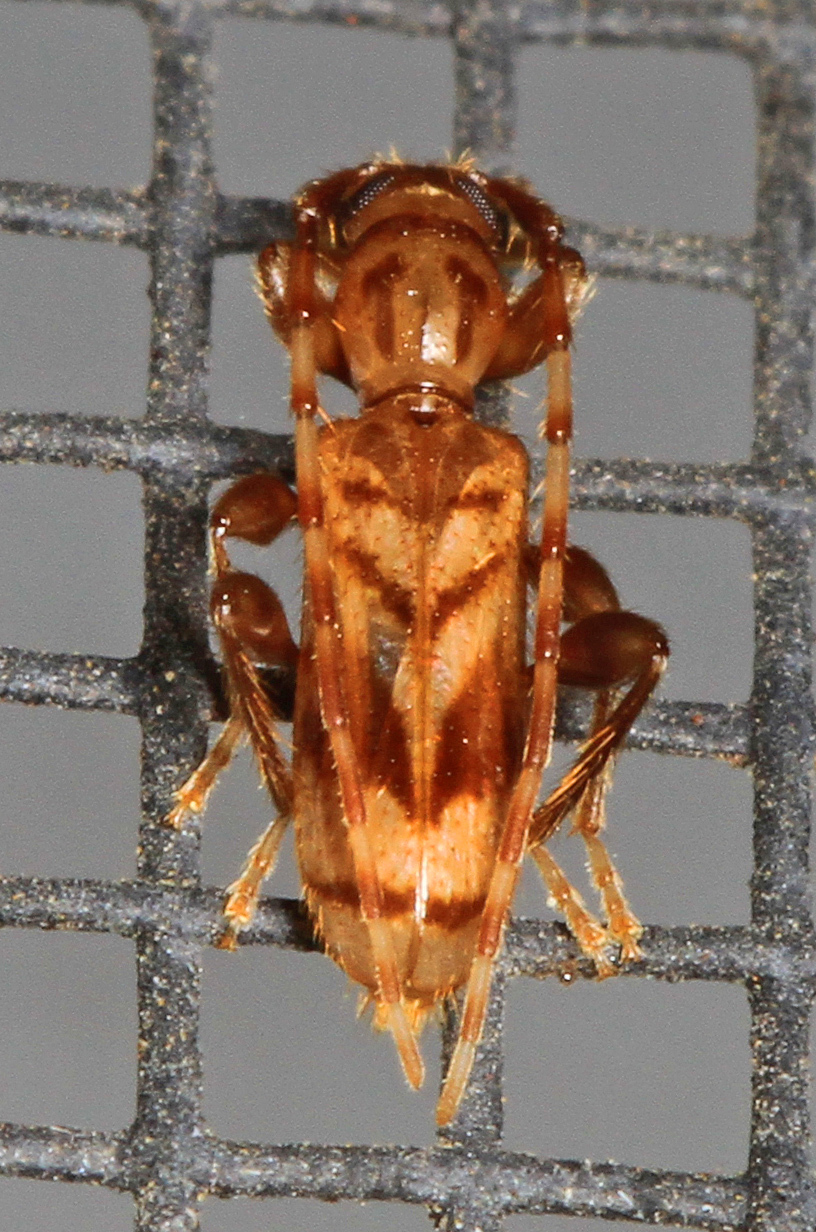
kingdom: Animalia
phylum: Arthropoda
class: Insecta
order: Coleoptera
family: Cerambycidae
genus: Obrium
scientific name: Obrium maculatum
